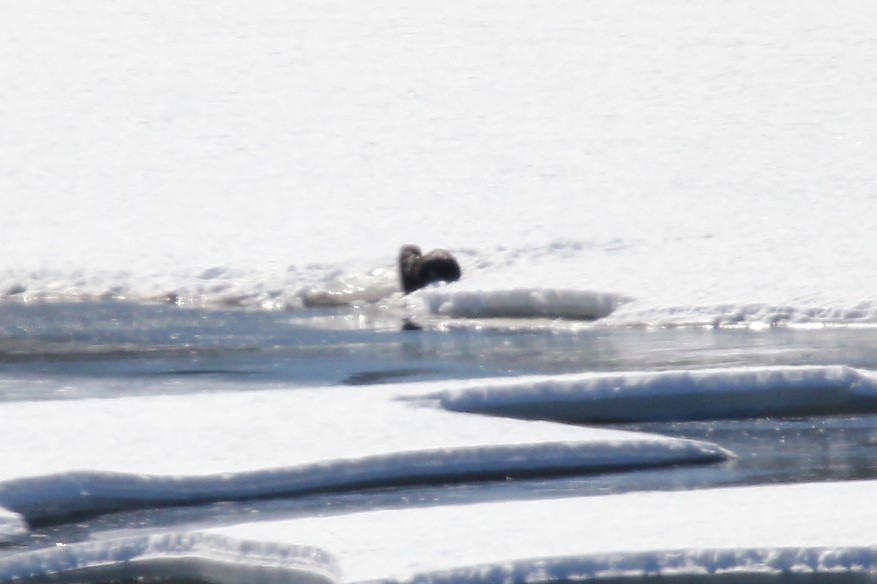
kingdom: Animalia
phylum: Chordata
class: Mammalia
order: Carnivora
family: Mustelidae
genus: Lontra
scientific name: Lontra canadensis
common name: North american river otter
